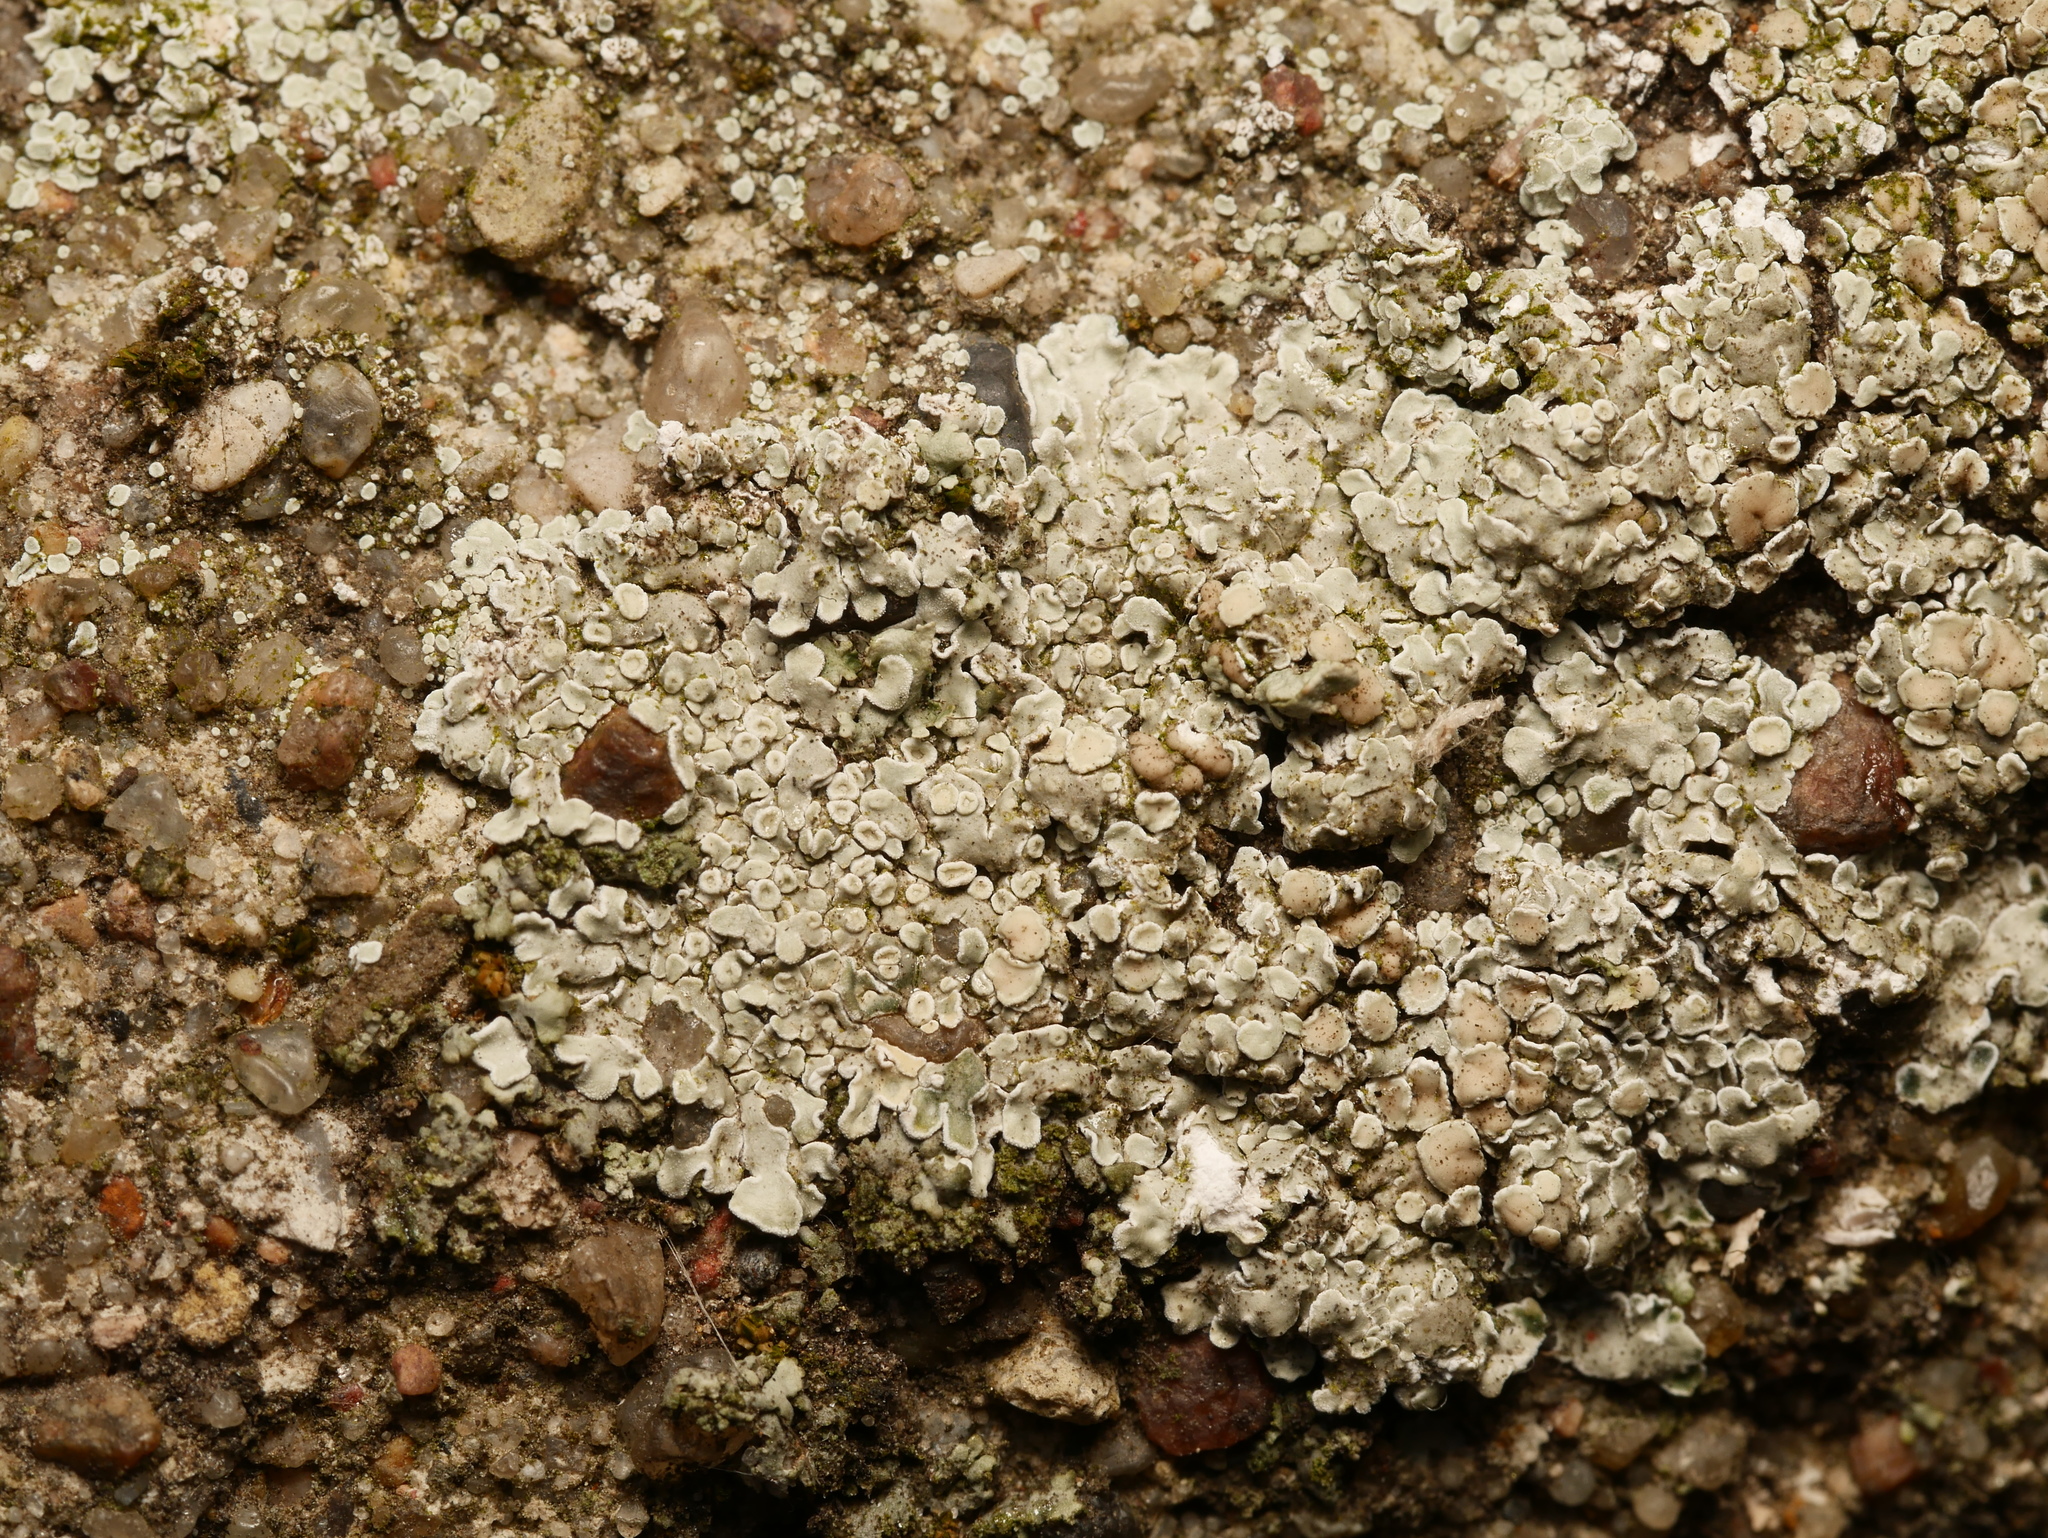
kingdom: Fungi
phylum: Ascomycota
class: Lecanoromycetes
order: Lecanorales
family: Lecanoraceae
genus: Protoparmeliopsis
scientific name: Protoparmeliopsis muralis
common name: Stonewall rim lichen
